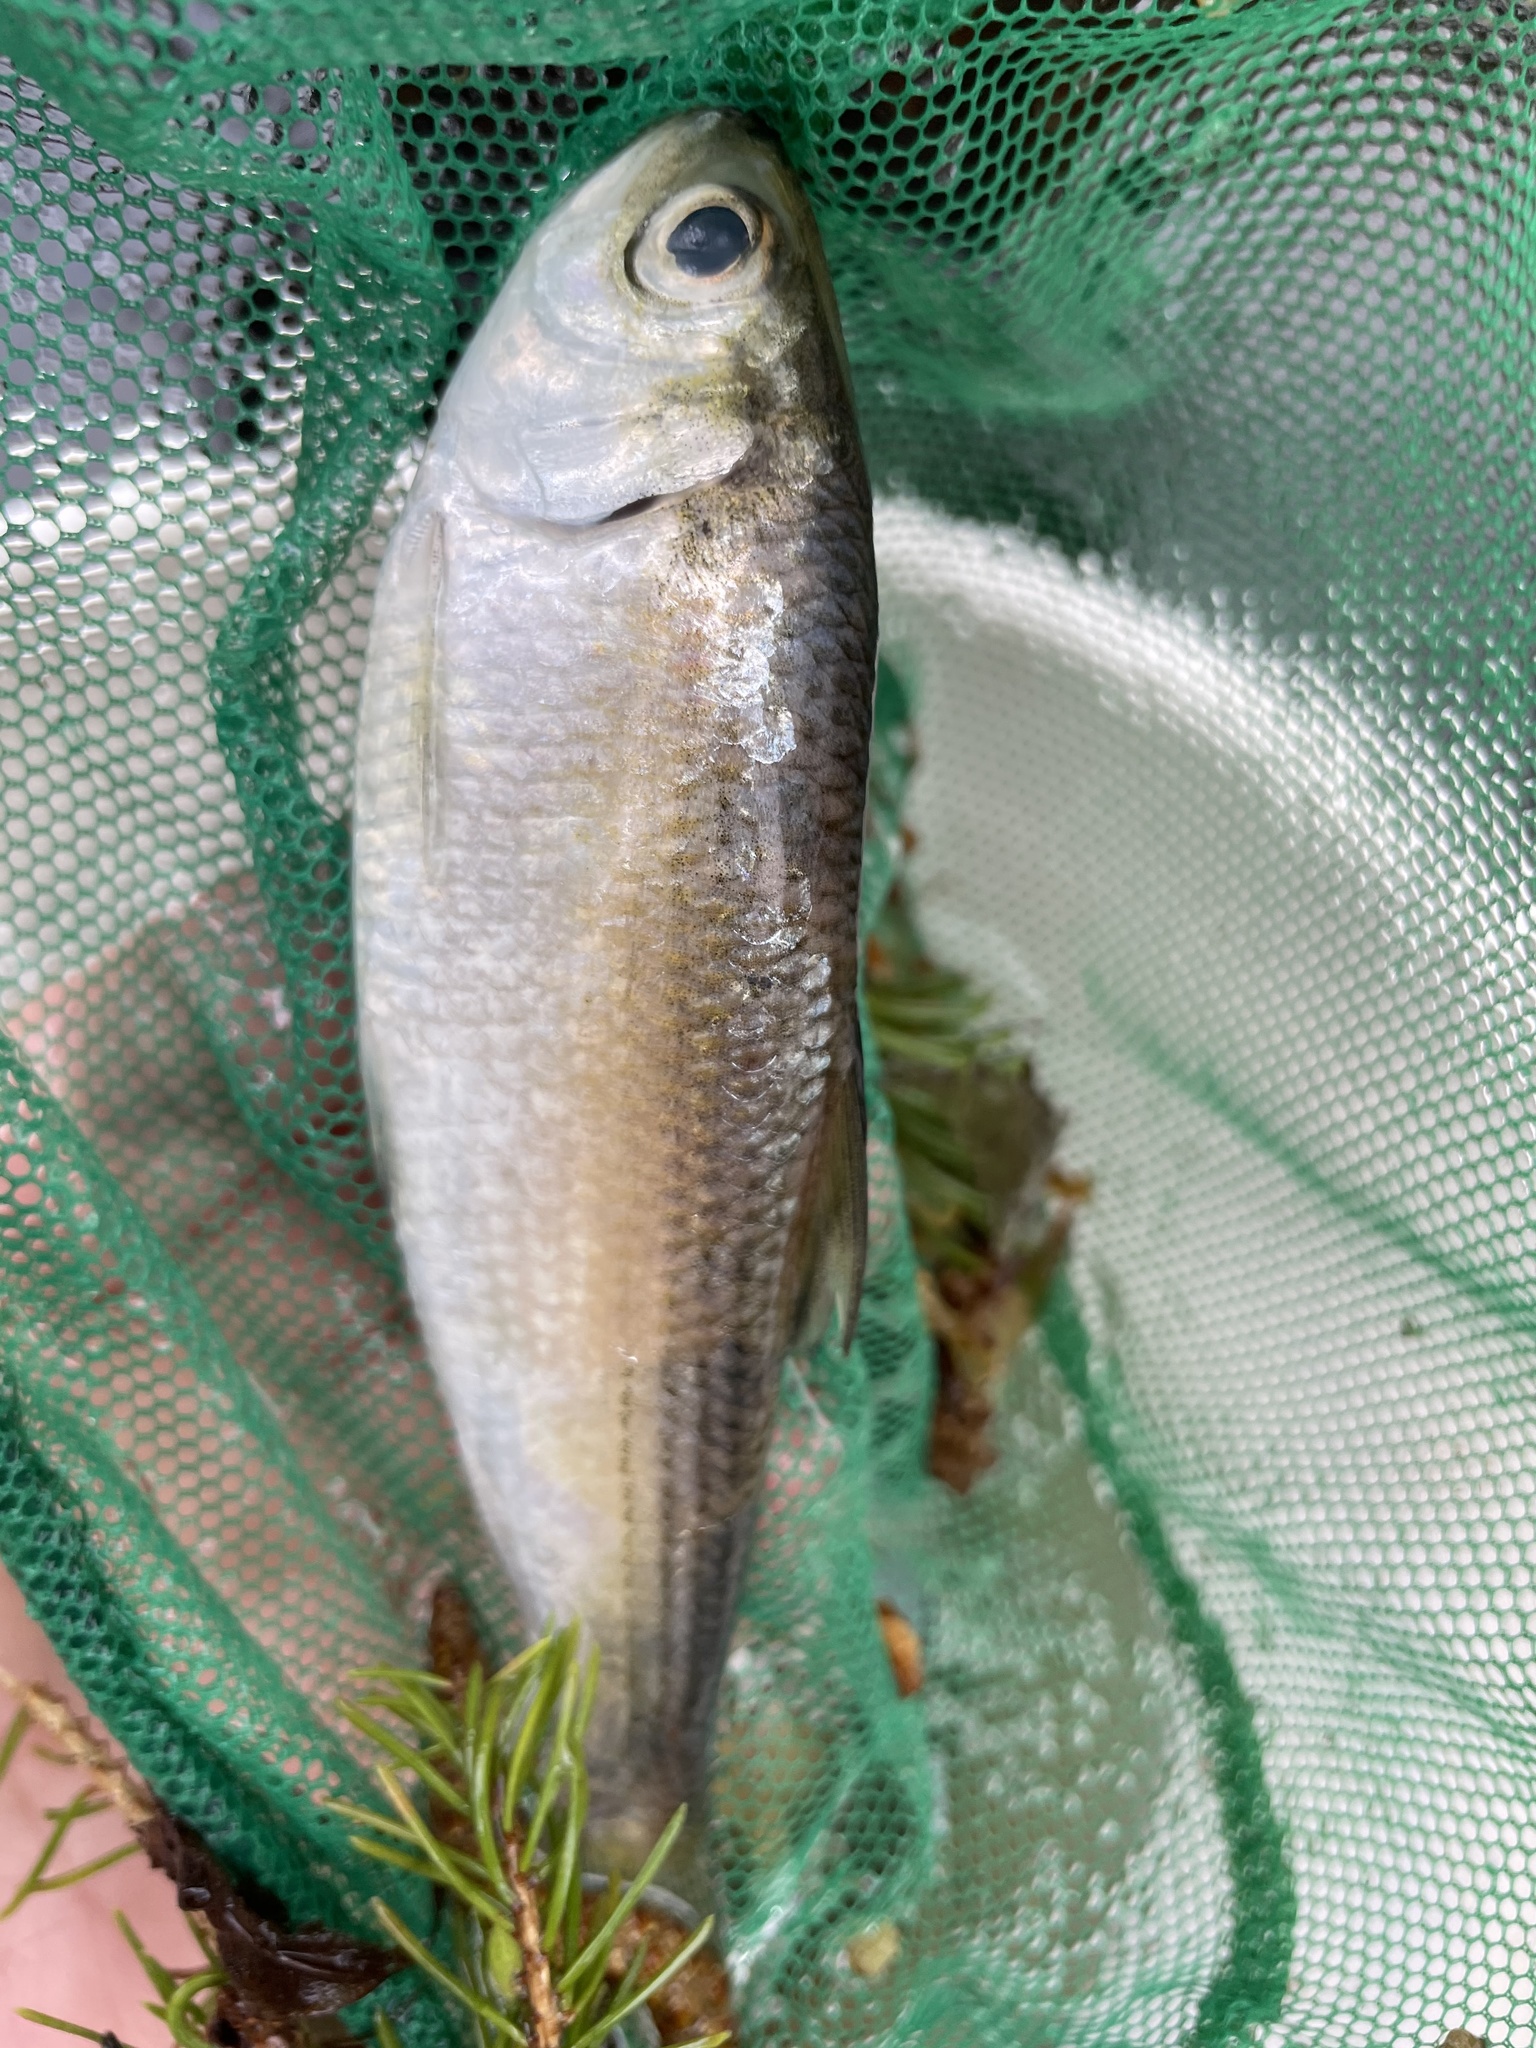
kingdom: Animalia
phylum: Chordata
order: Clupeiformes
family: Clupeidae
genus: Alosa
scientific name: Alosa pseudoharengus
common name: Alewife
